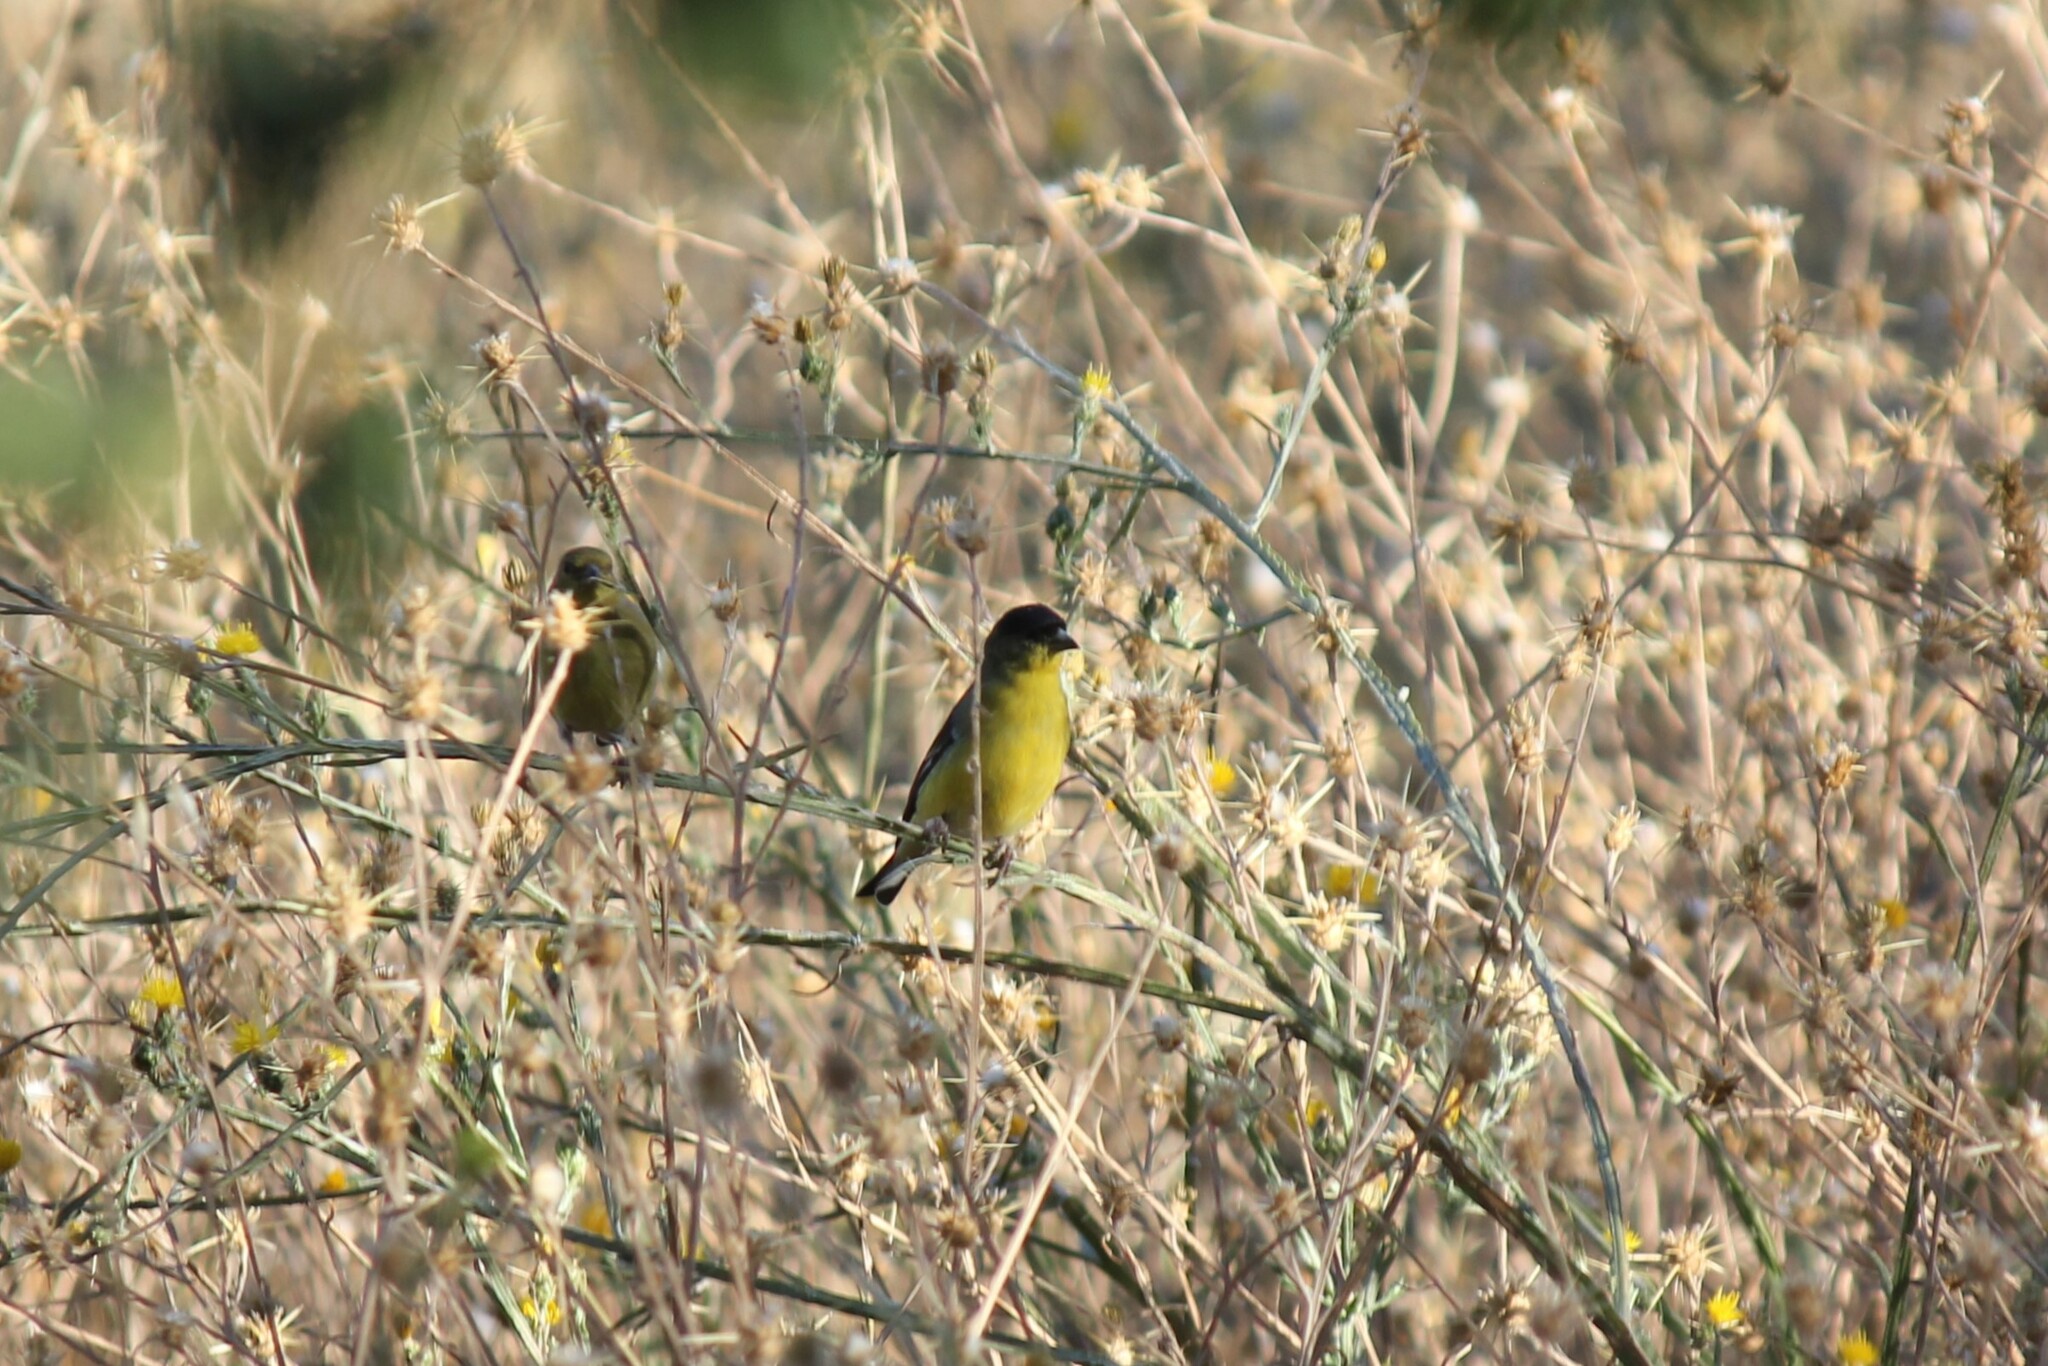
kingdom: Animalia
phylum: Chordata
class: Aves
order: Passeriformes
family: Fringillidae
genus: Spinus
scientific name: Spinus psaltria
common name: Lesser goldfinch
